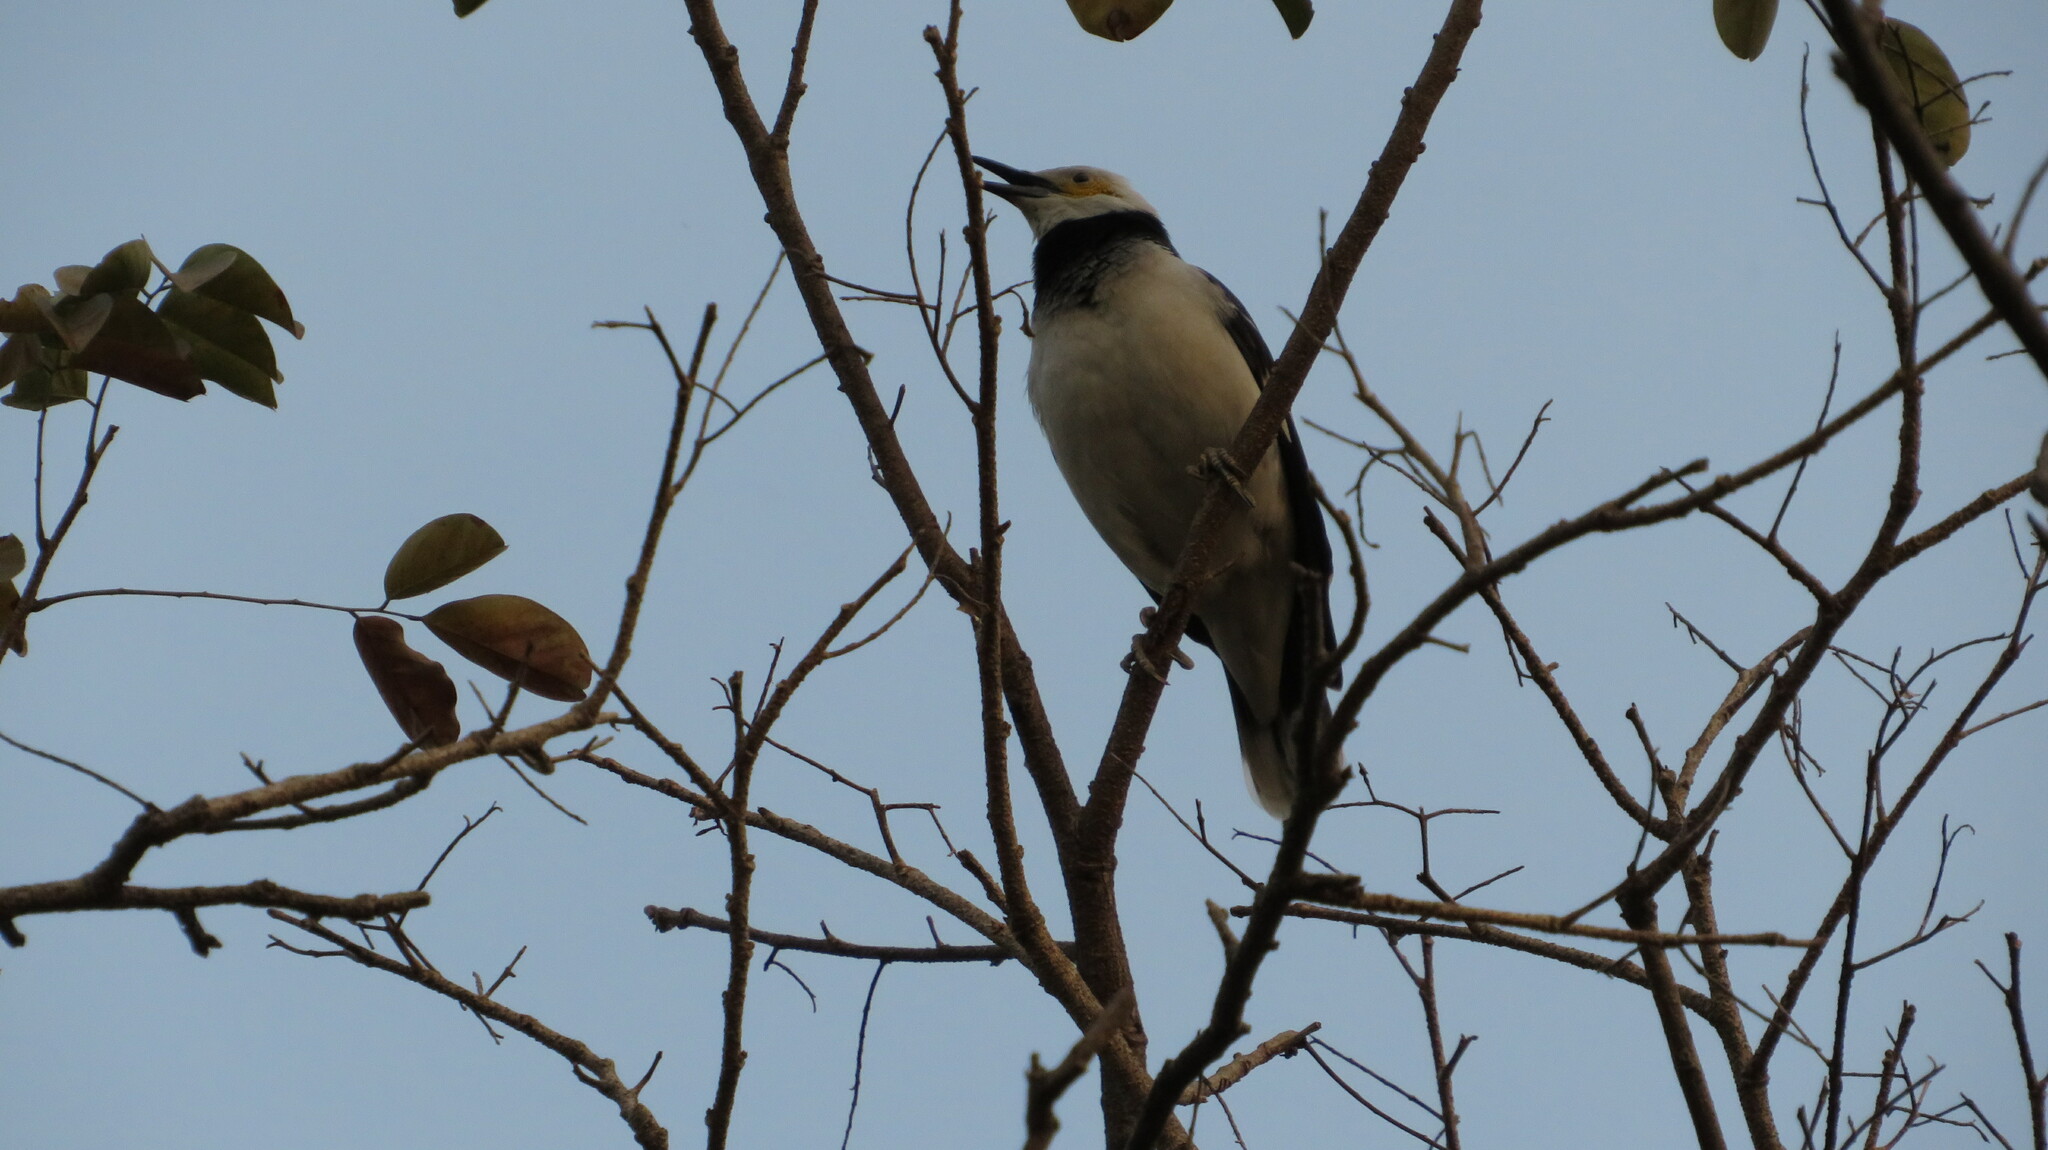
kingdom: Animalia
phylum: Chordata
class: Aves
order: Passeriformes
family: Sturnidae
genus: Gracupica
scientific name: Gracupica nigricollis
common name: Black-collared starling
